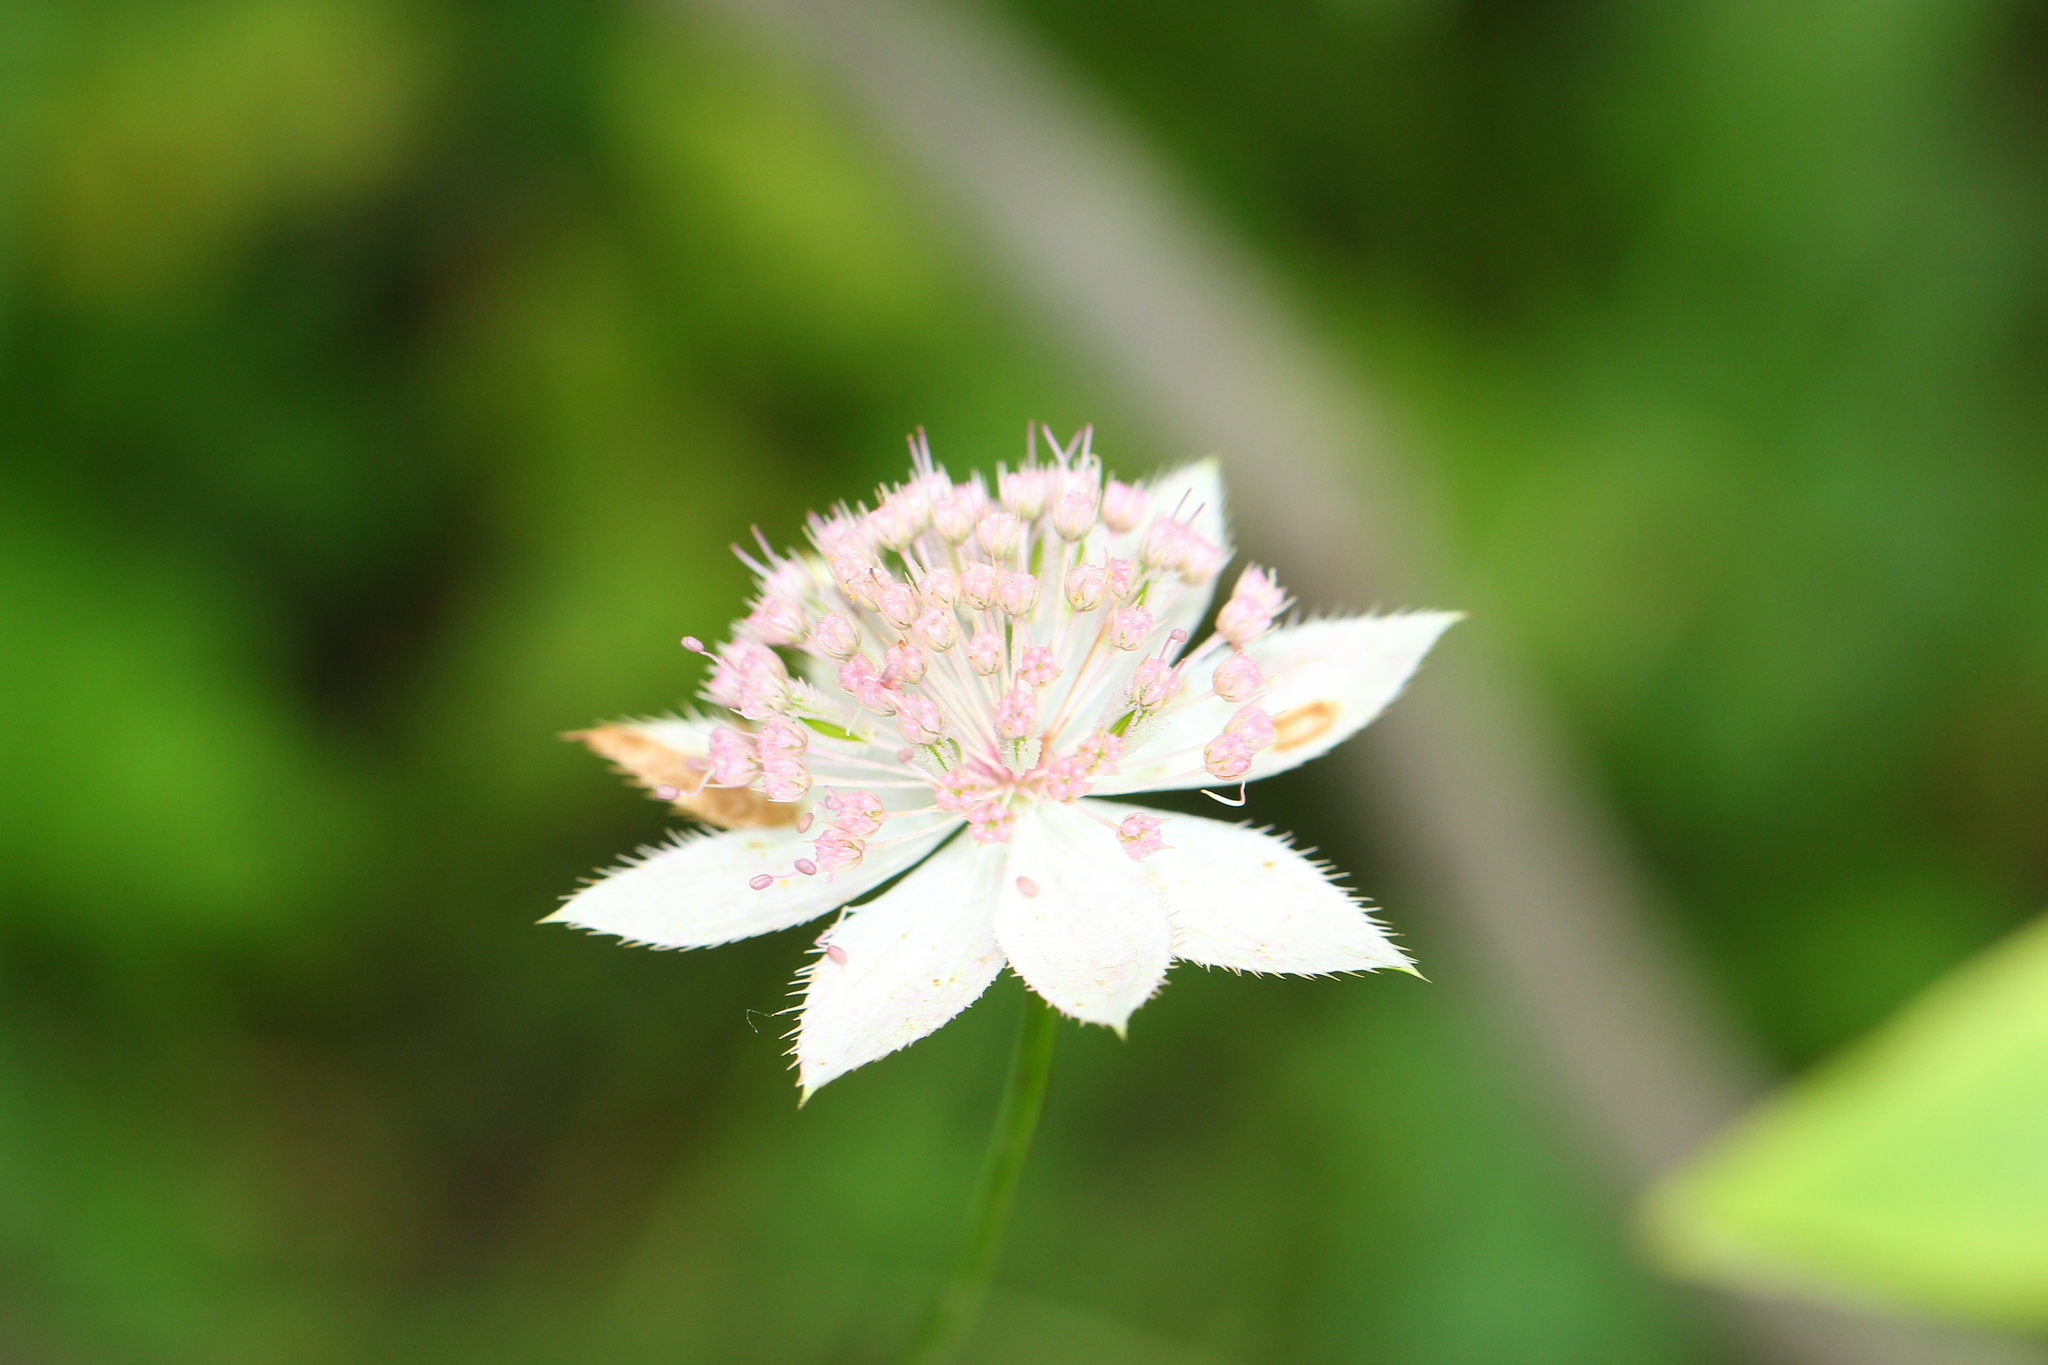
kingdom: Plantae
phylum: Tracheophyta
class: Magnoliopsida
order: Apiales
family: Apiaceae
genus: Astrantia
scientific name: Astrantia maxima
